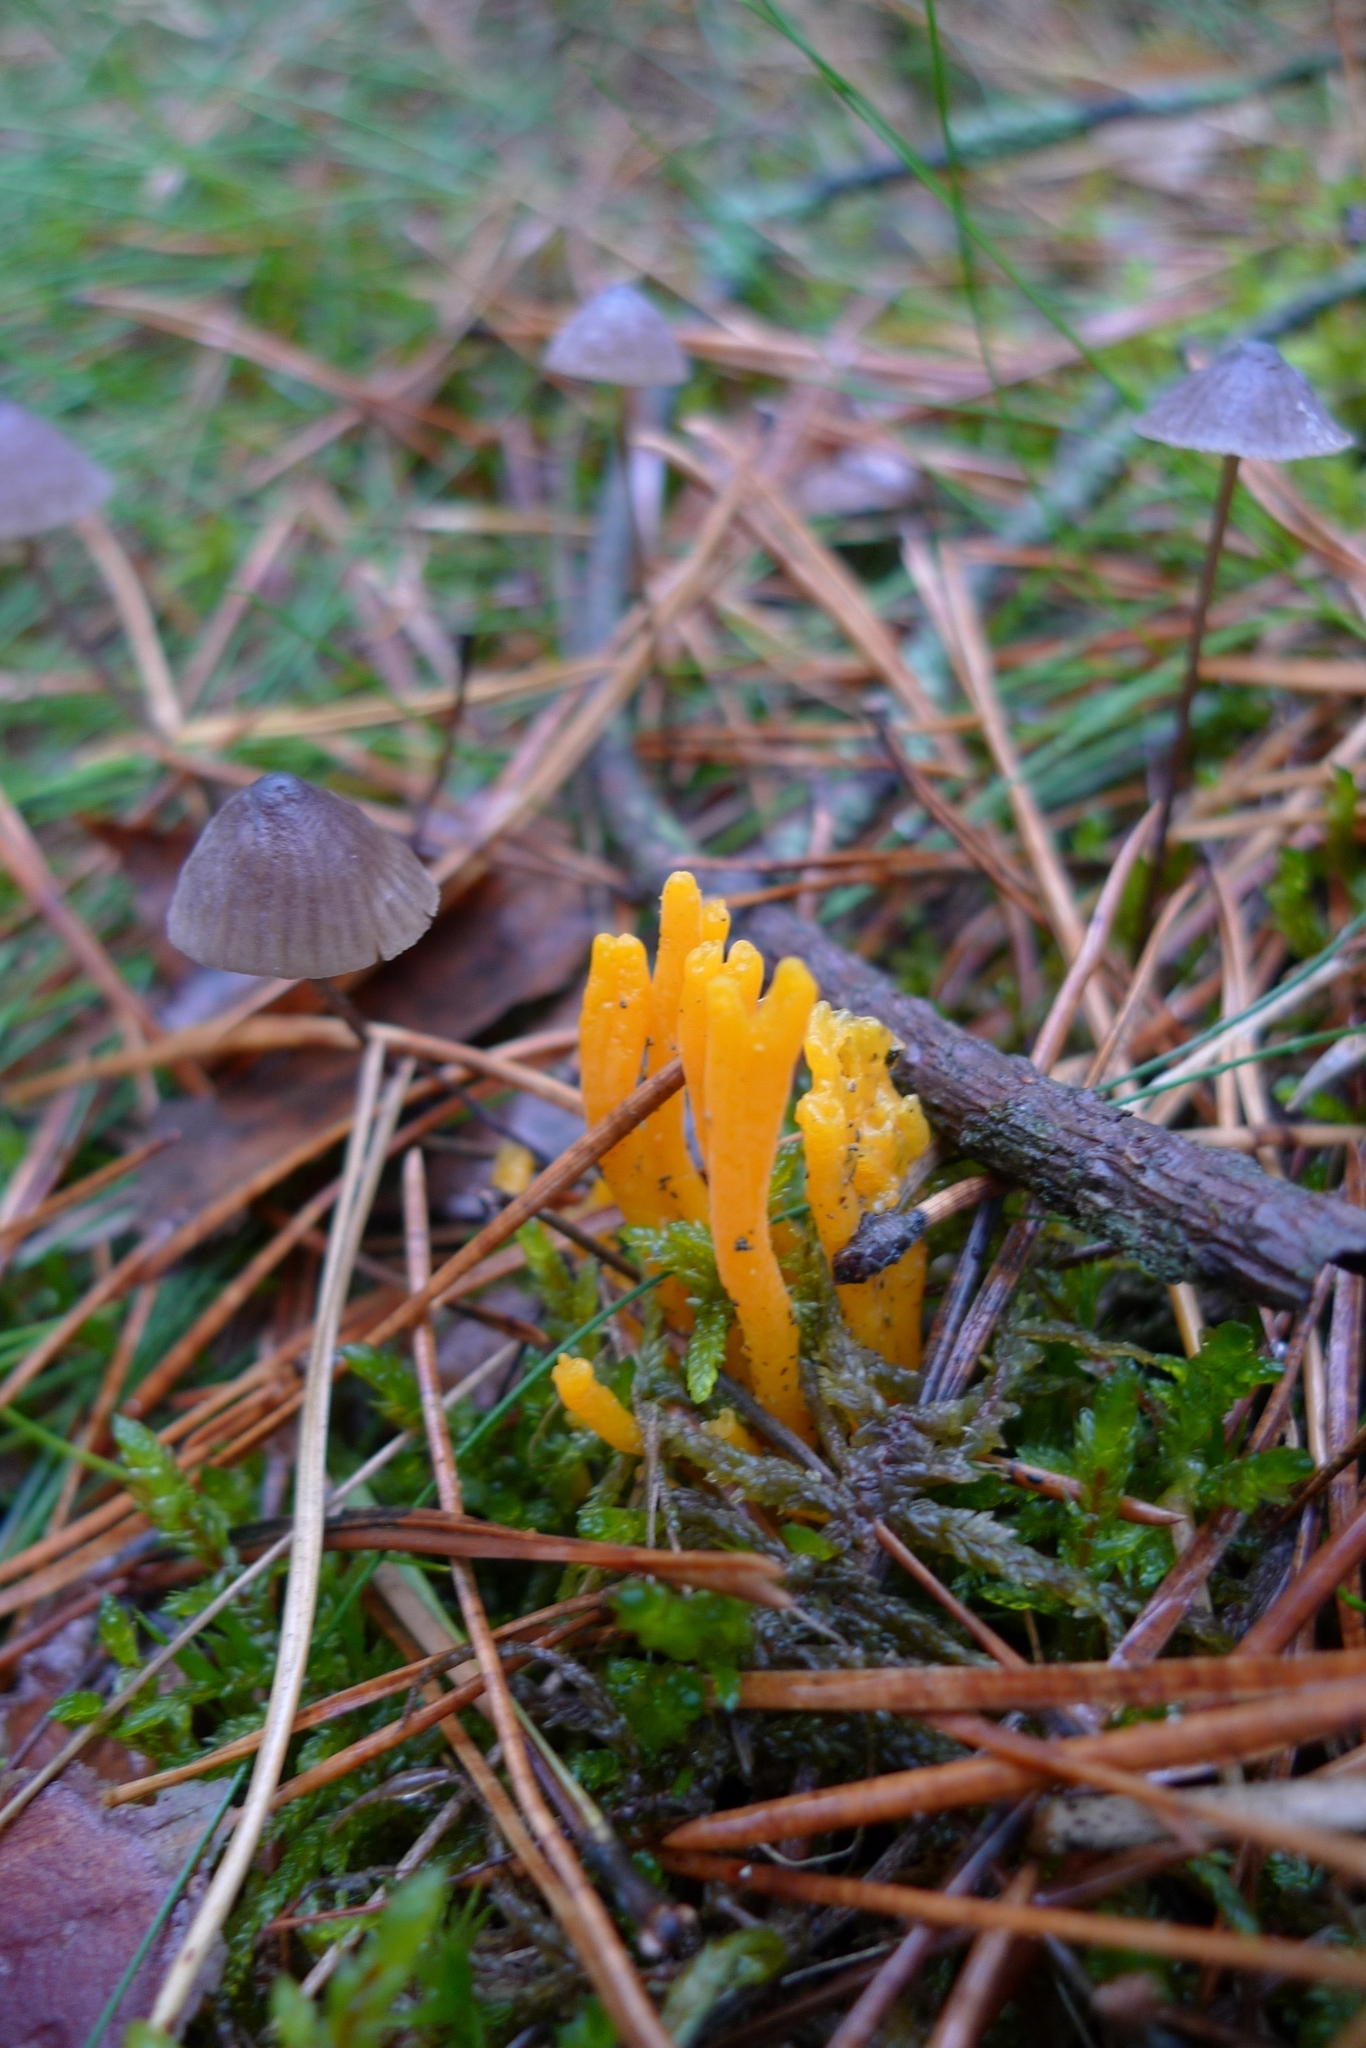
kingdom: Fungi
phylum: Basidiomycota
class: Dacrymycetes
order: Dacrymycetales
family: Dacrymycetaceae
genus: Calocera
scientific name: Calocera viscosa
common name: Yellow stagshorn
